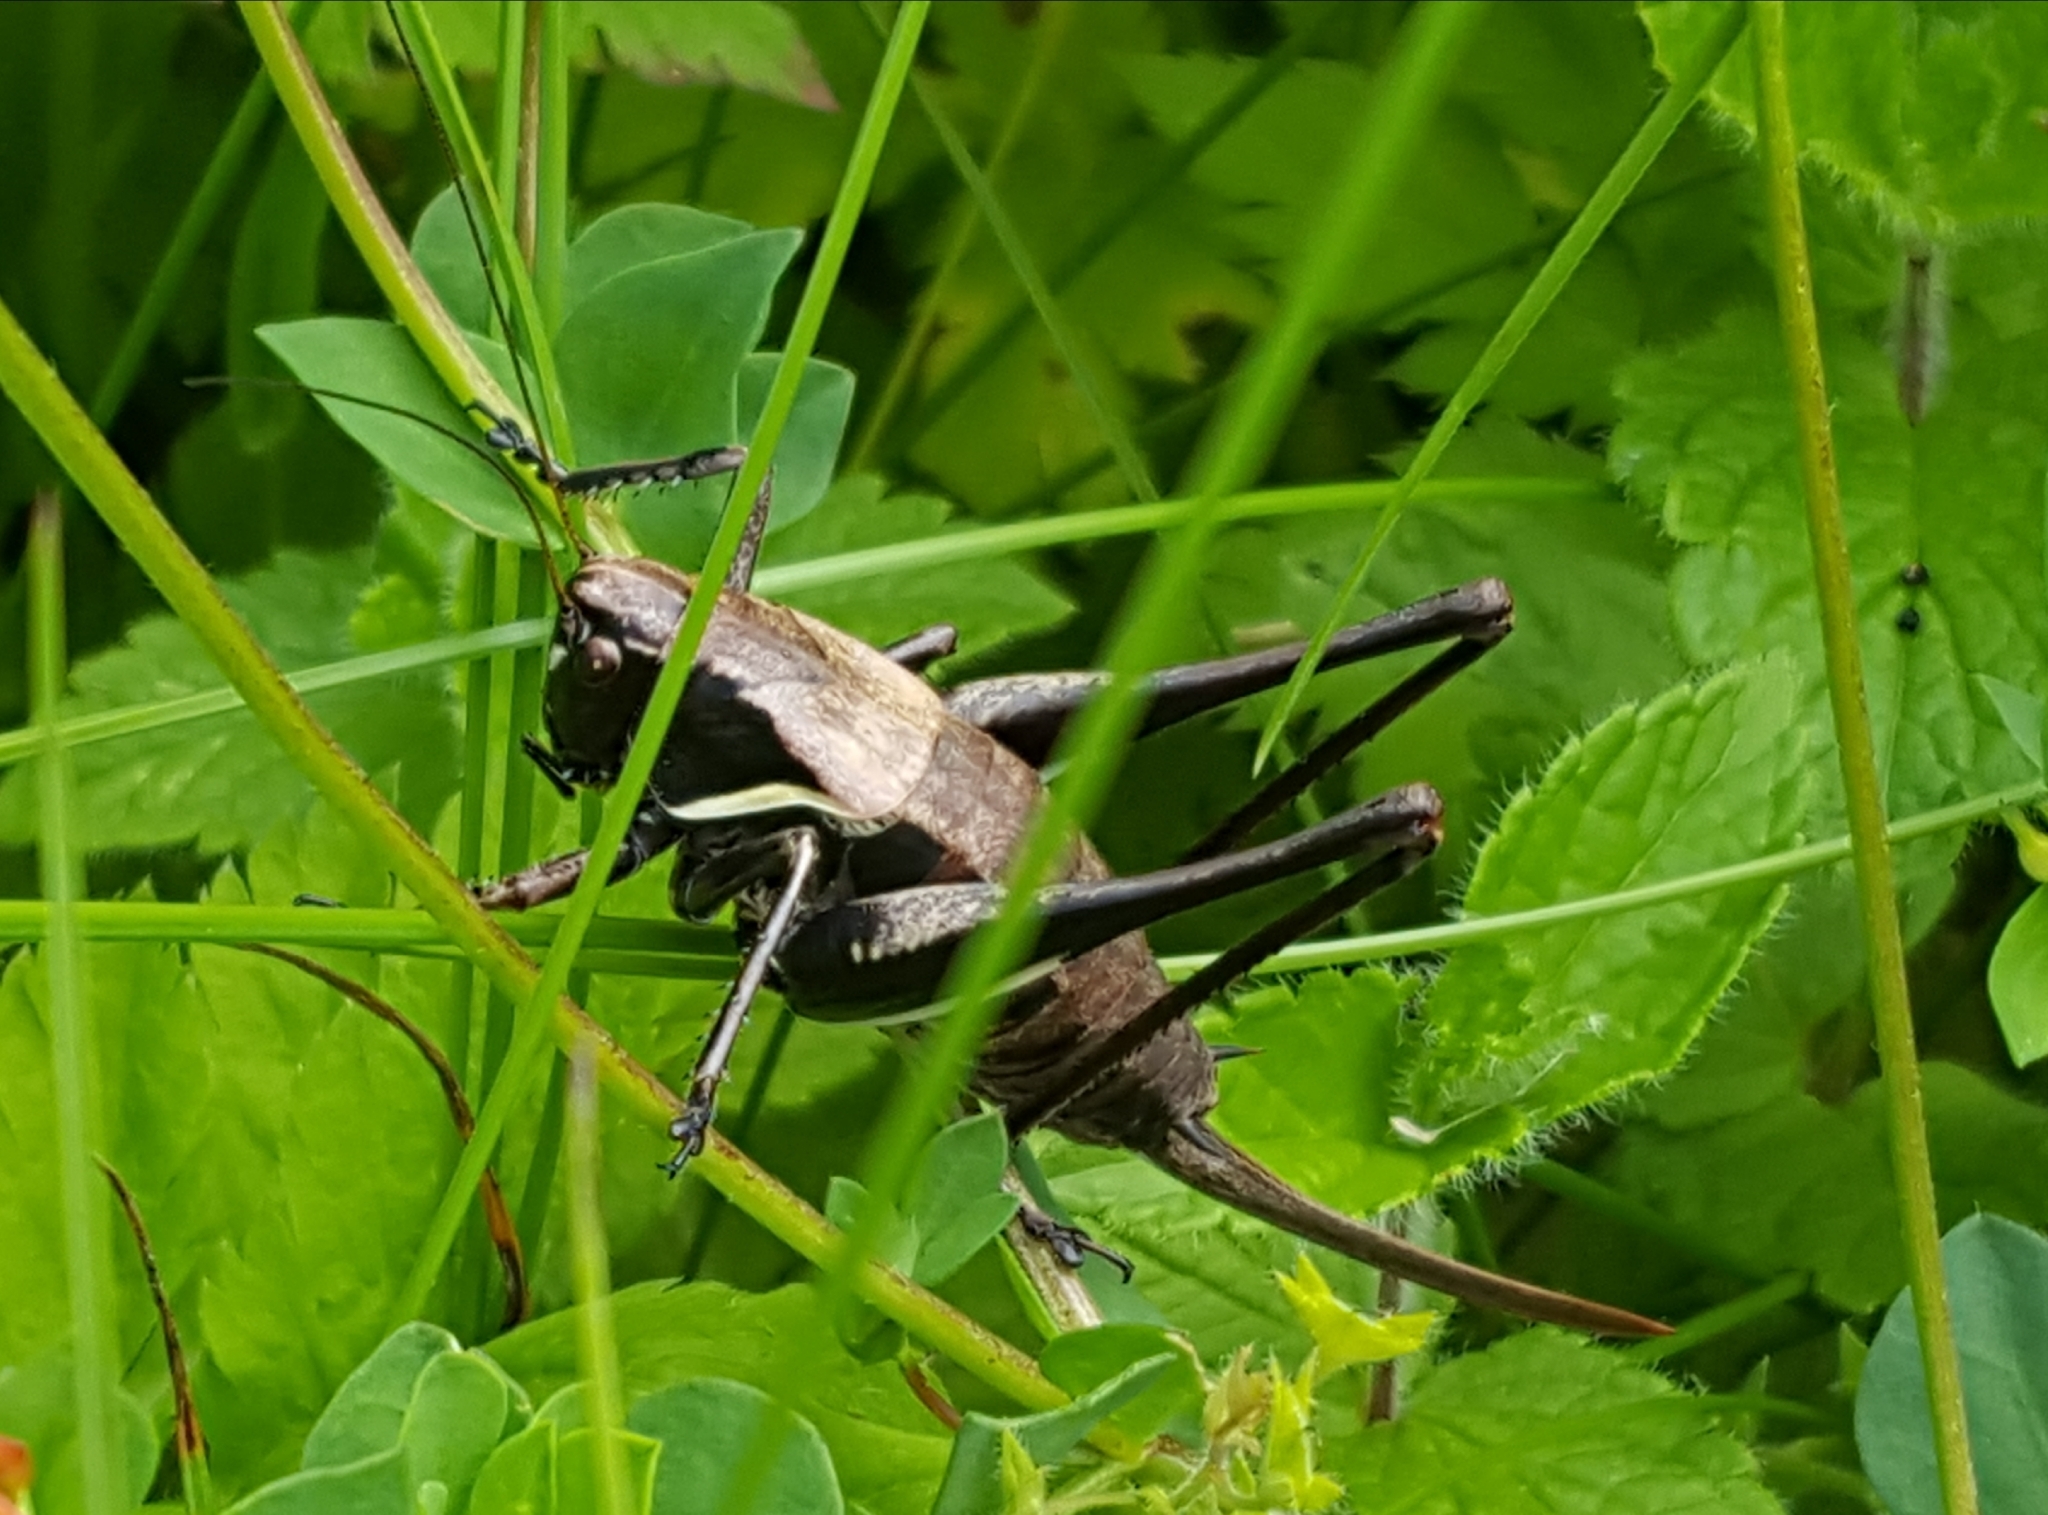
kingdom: Animalia
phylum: Arthropoda
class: Insecta
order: Orthoptera
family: Tettigoniidae
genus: Pholidoptera
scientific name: Pholidoptera aptera
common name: Alpine dark bush-cricket
